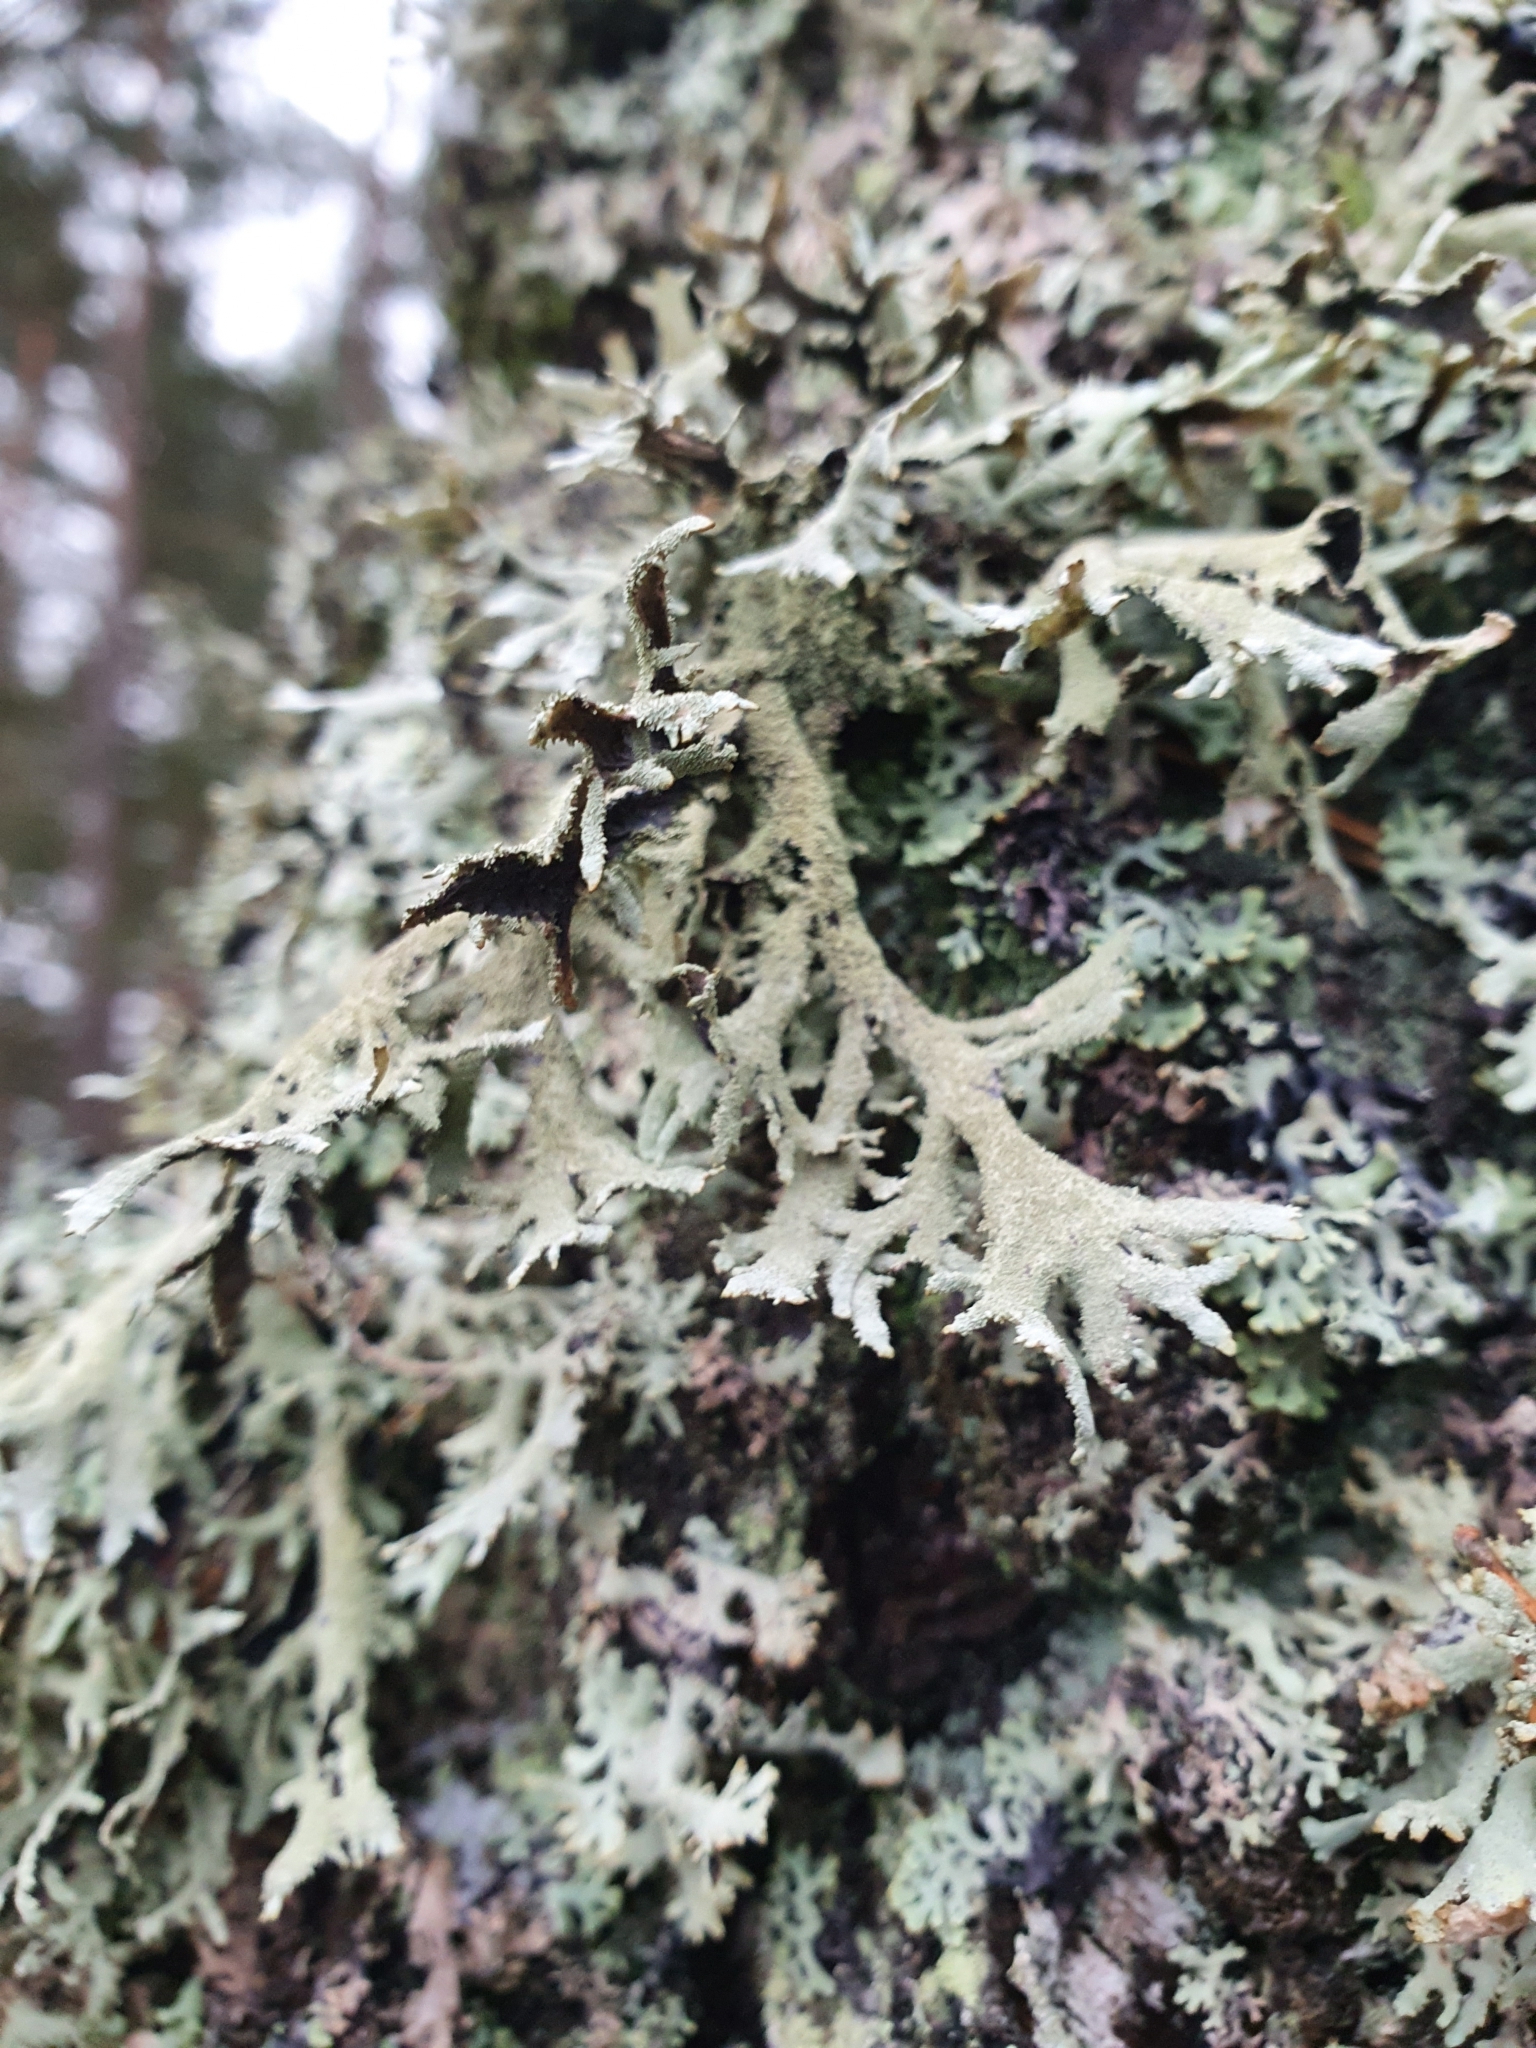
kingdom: Fungi
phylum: Ascomycota
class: Lecanoromycetes
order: Lecanorales
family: Parmeliaceae
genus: Pseudevernia
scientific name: Pseudevernia furfuracea
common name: Tree moss
